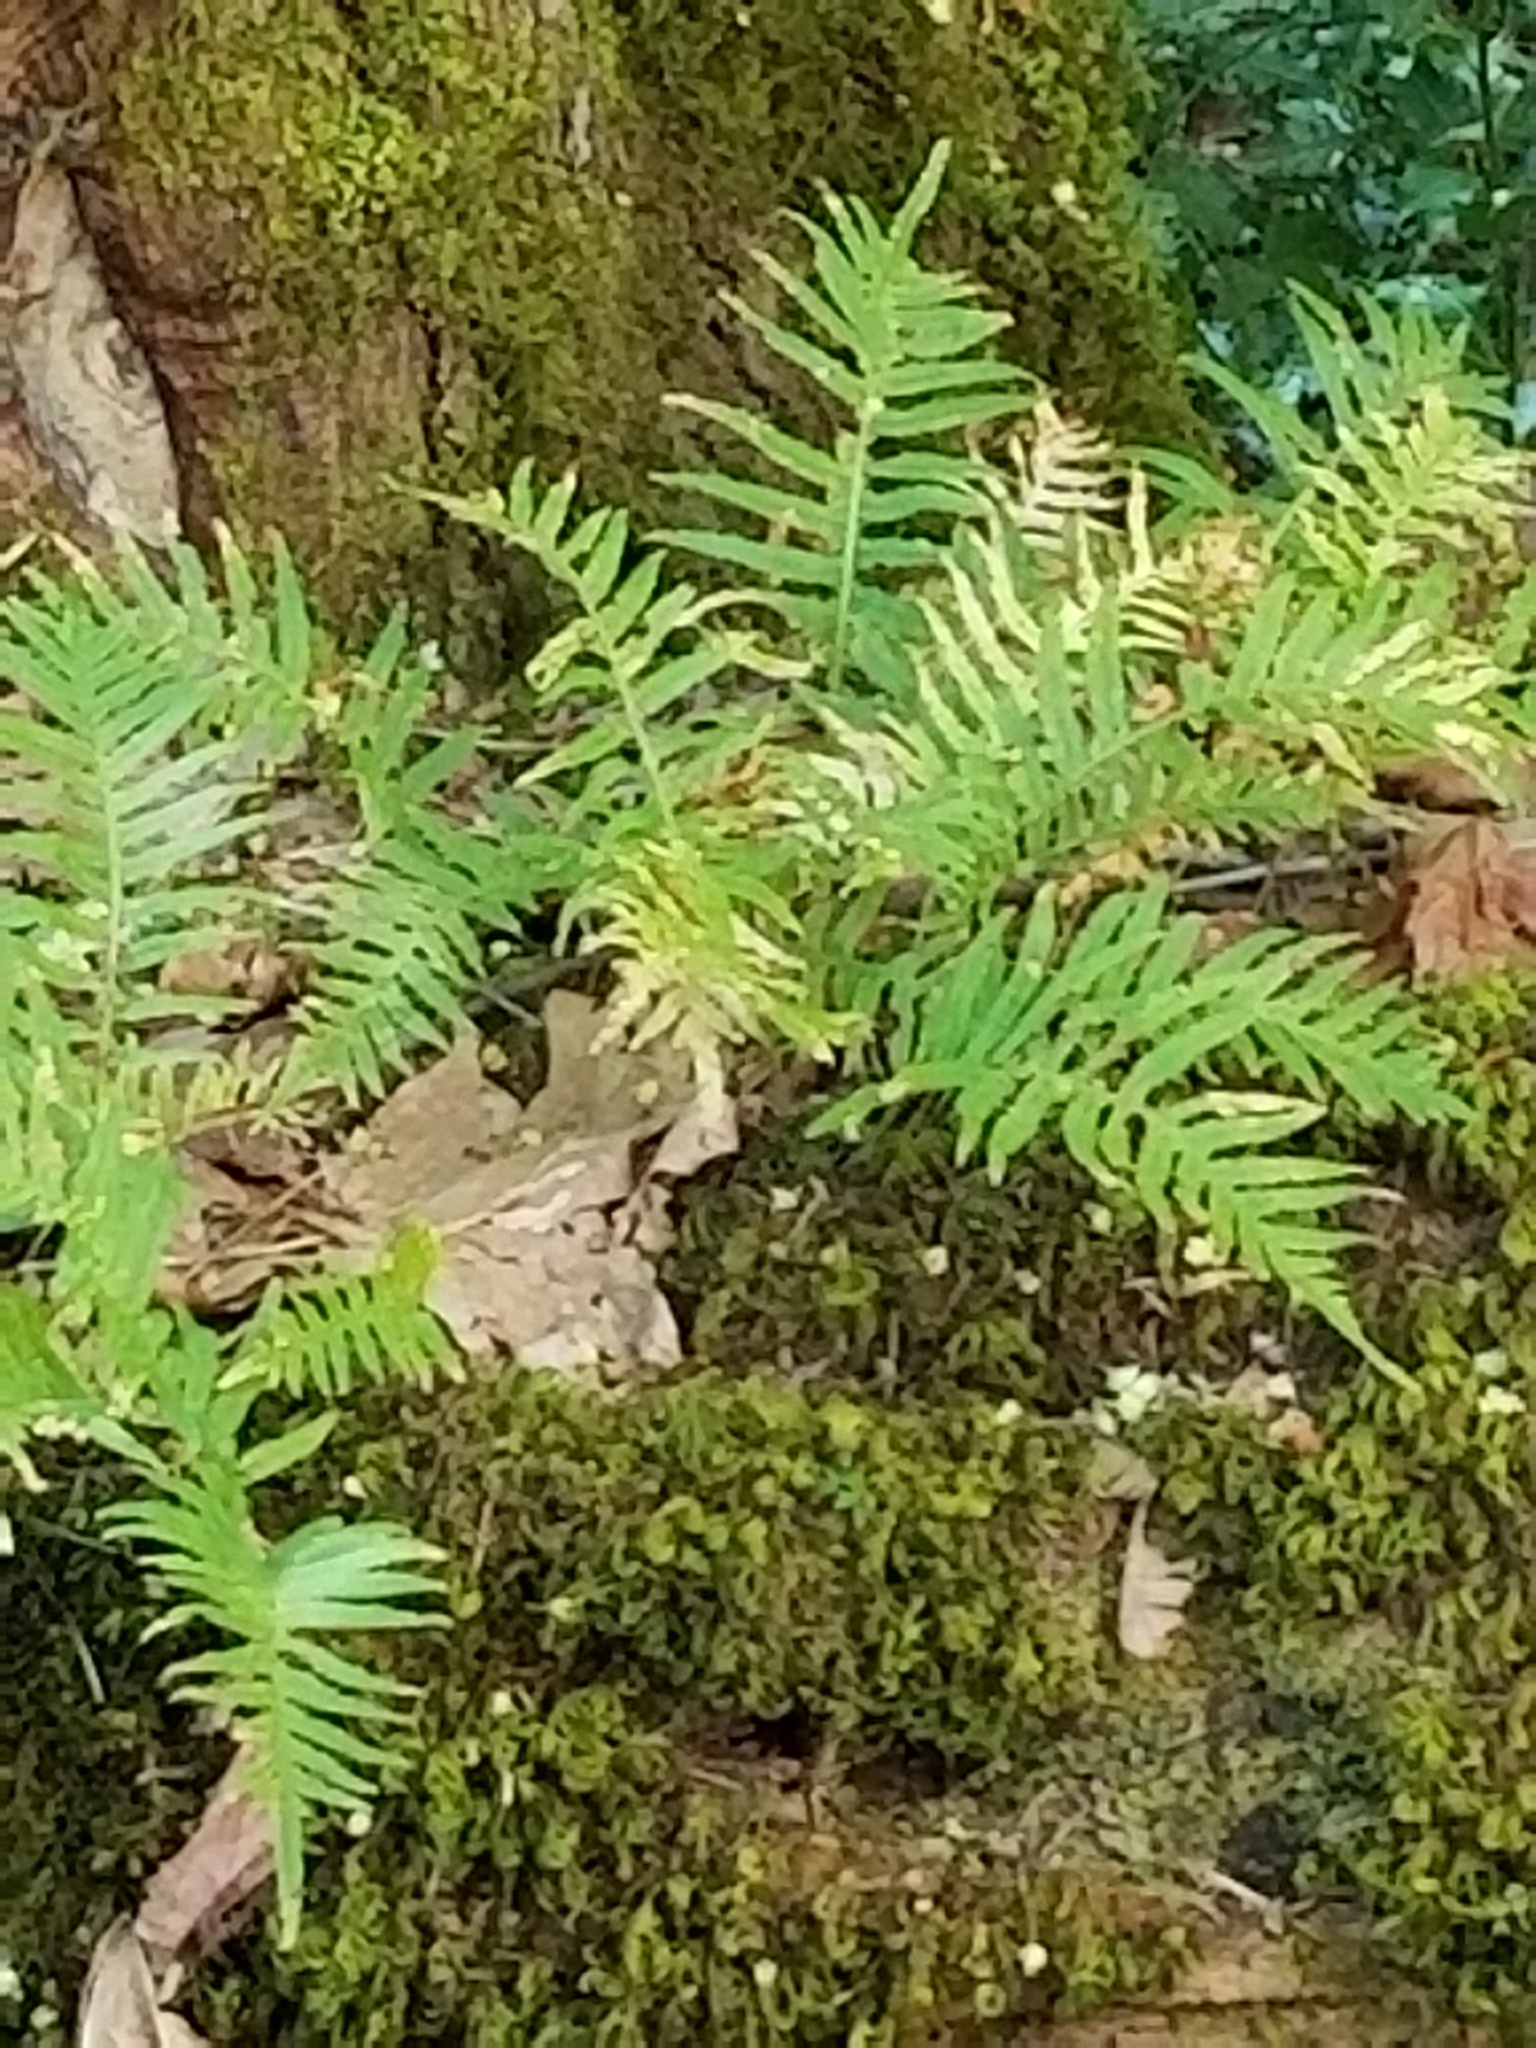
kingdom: Plantae
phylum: Tracheophyta
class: Polypodiopsida
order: Polypodiales
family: Polypodiaceae
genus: Polypodium
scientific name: Polypodium glycyrrhiza
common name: Licorice fern
